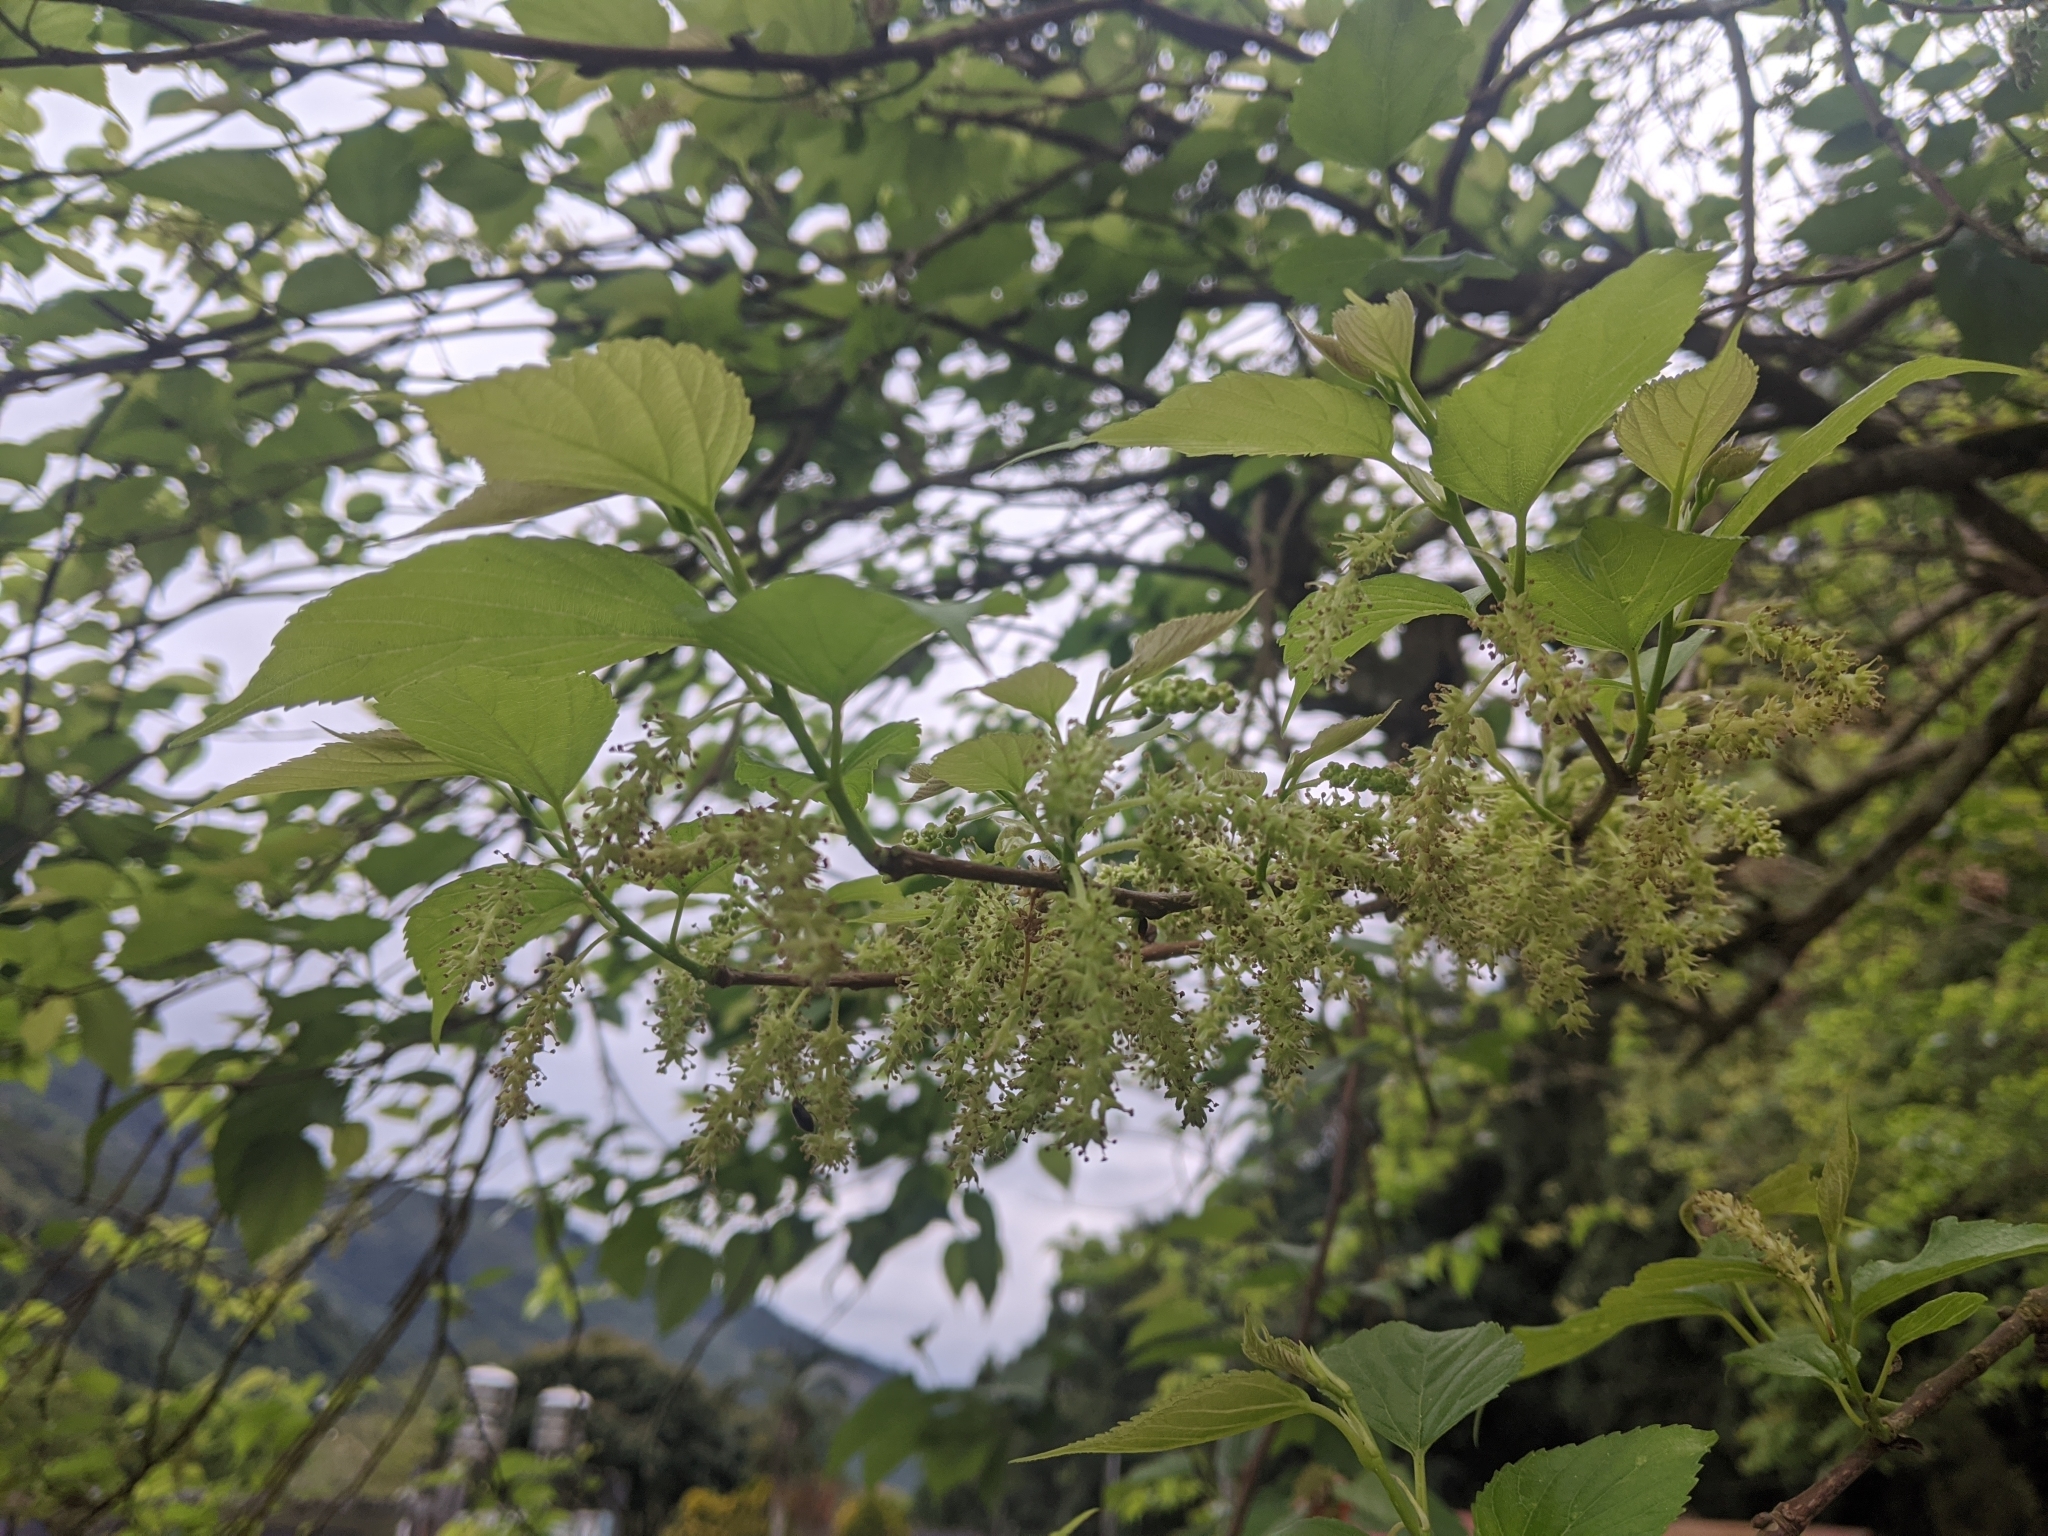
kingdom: Plantae
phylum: Tracheophyta
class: Magnoliopsida
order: Rosales
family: Moraceae
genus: Morus
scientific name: Morus indica
